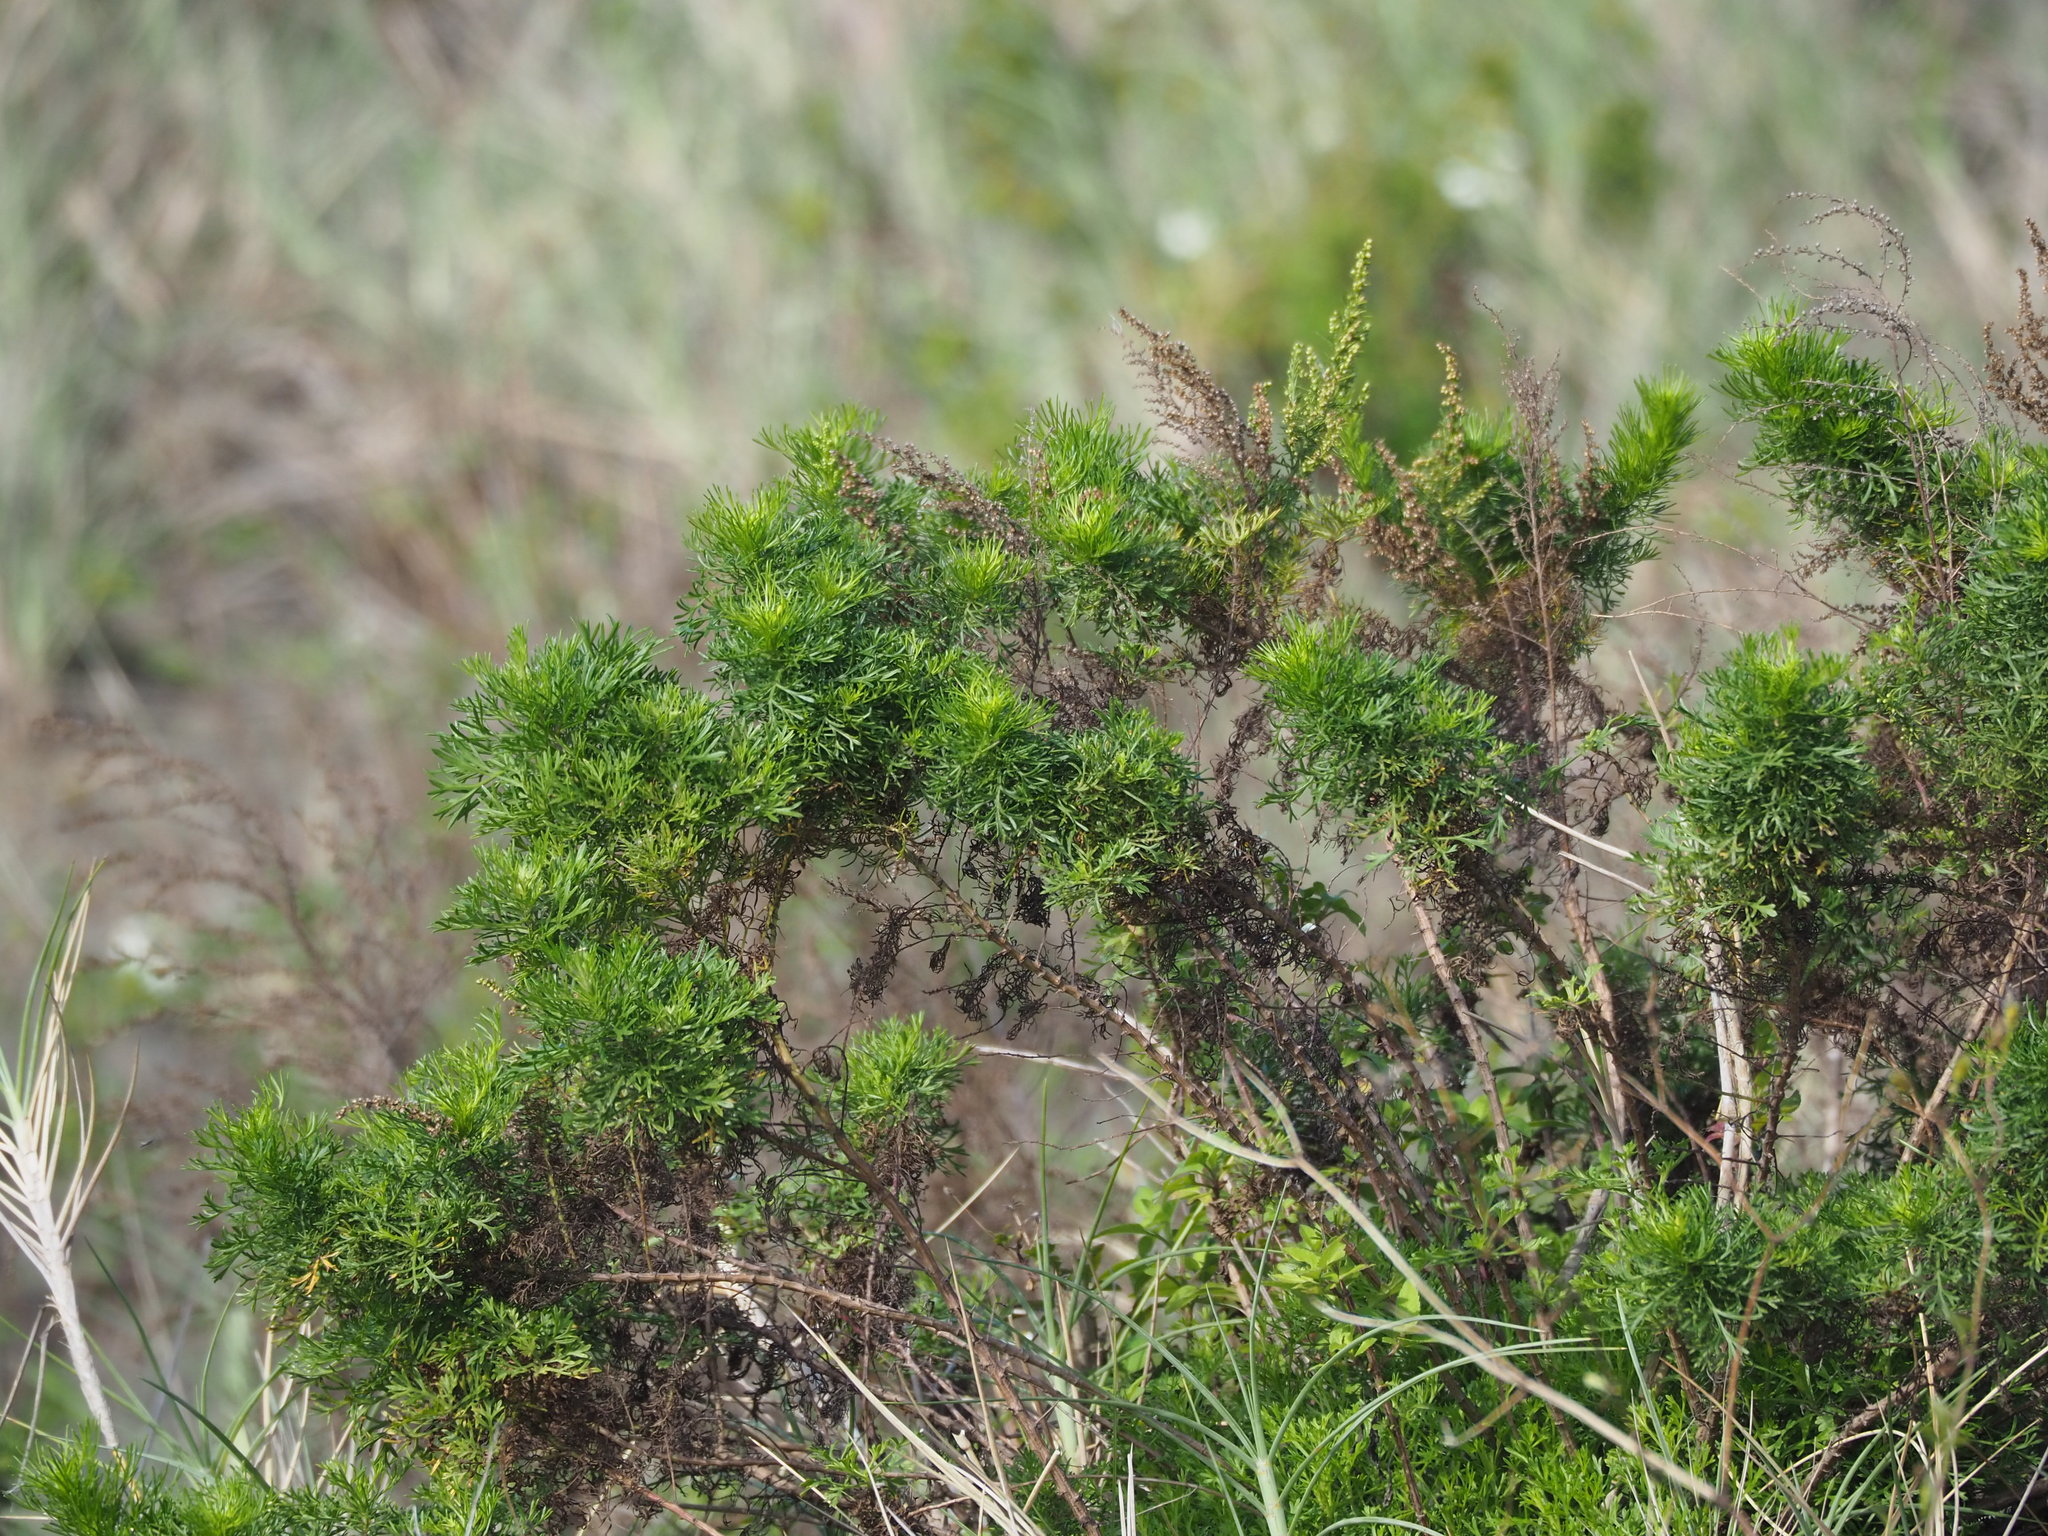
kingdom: Plantae
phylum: Tracheophyta
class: Magnoliopsida
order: Asterales
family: Asteraceae
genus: Artemisia
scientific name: Artemisia capillaris
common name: Yin-chen wormwood
